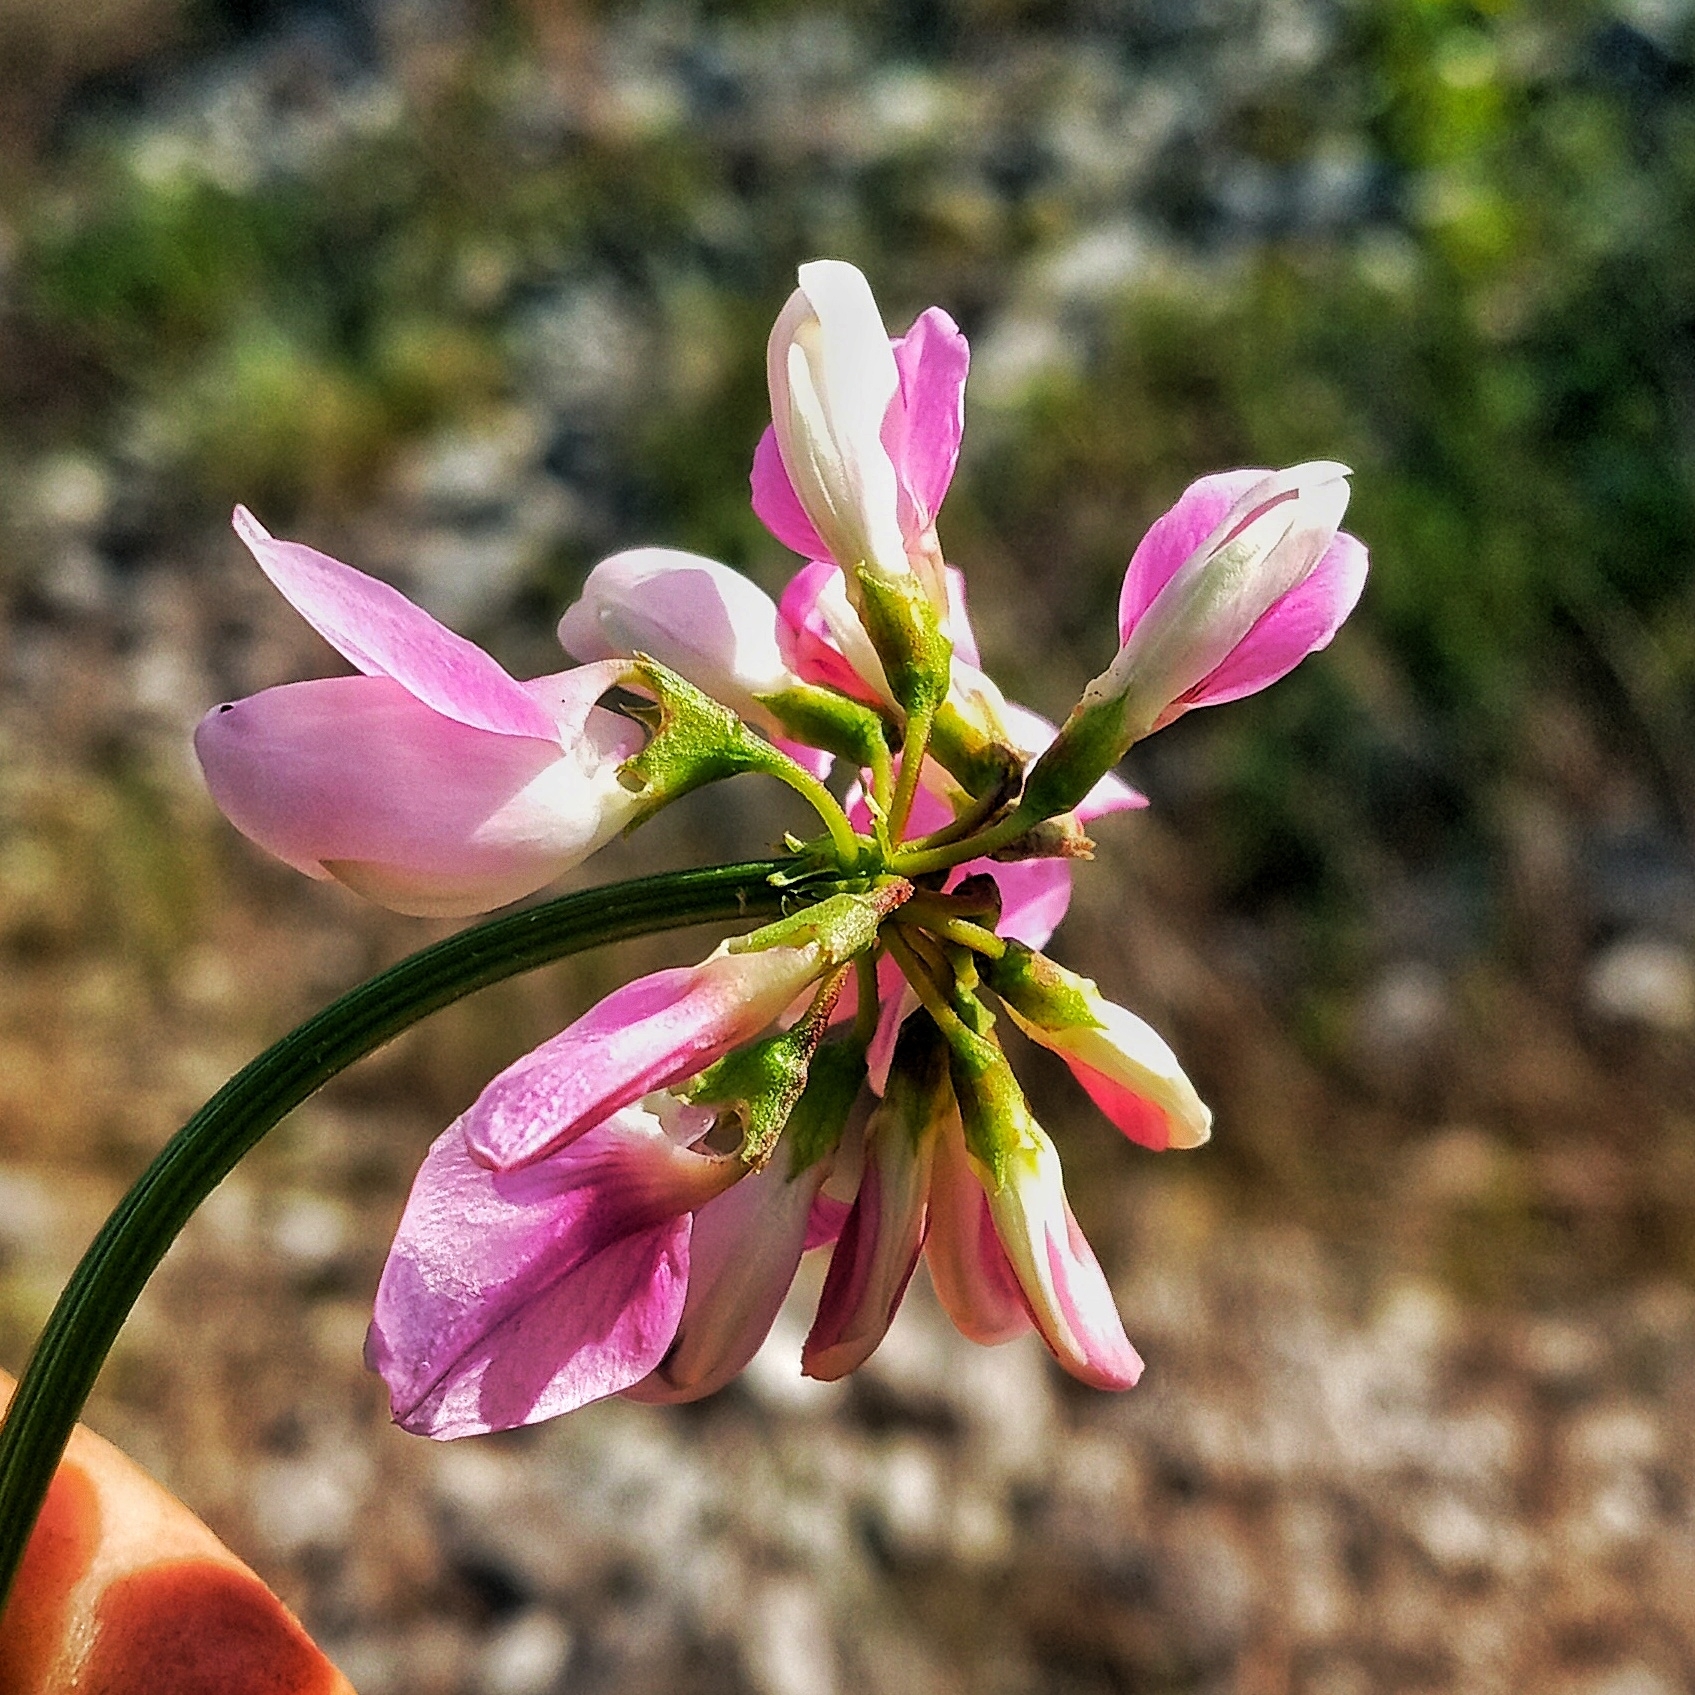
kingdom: Plantae
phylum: Tracheophyta
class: Magnoliopsida
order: Fabales
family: Fabaceae
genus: Coronilla
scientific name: Coronilla varia
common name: Crownvetch
